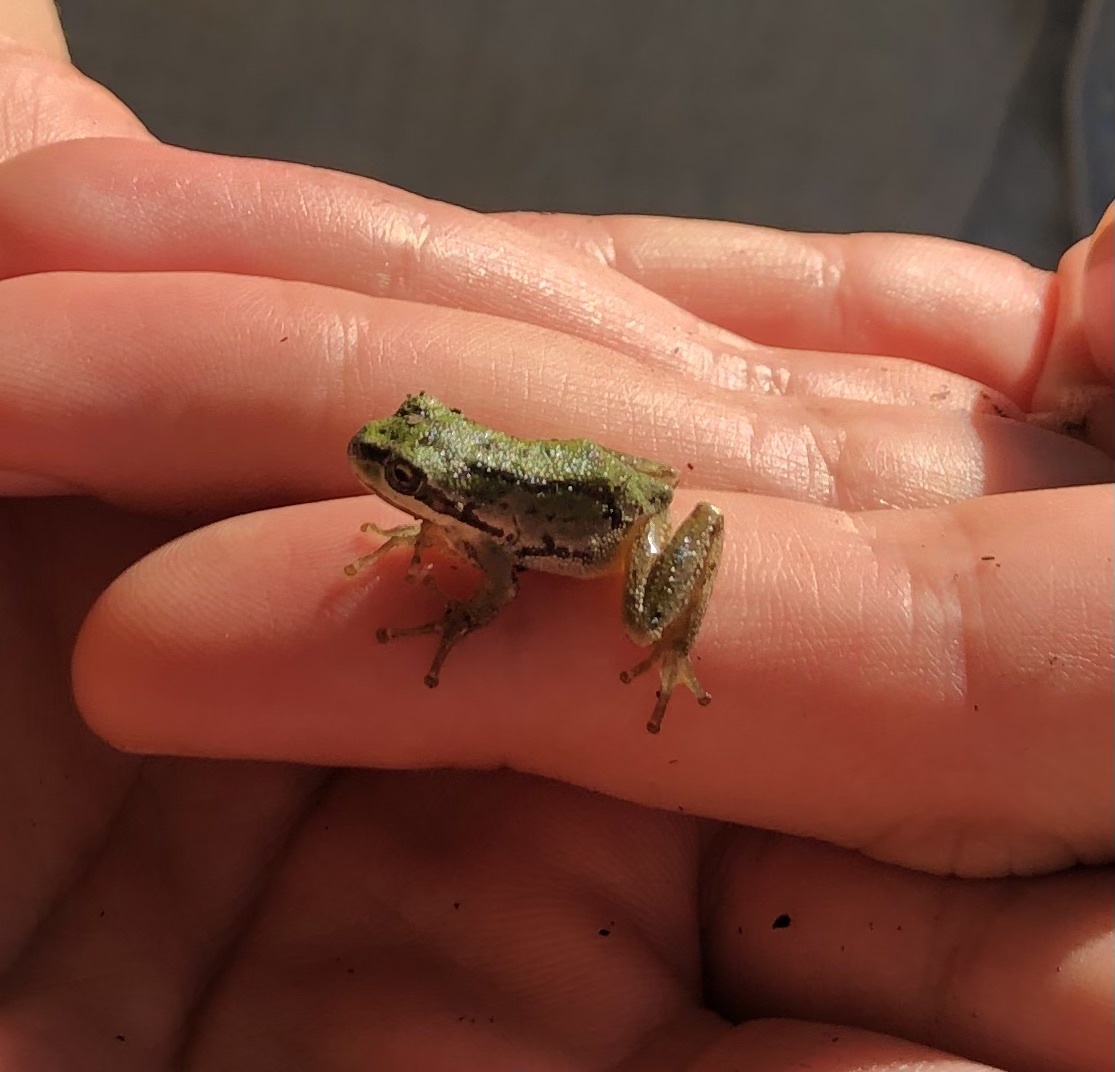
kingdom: Animalia
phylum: Chordata
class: Amphibia
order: Anura
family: Hylidae
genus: Pseudacris
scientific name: Pseudacris regilla
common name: Pacific chorus frog
